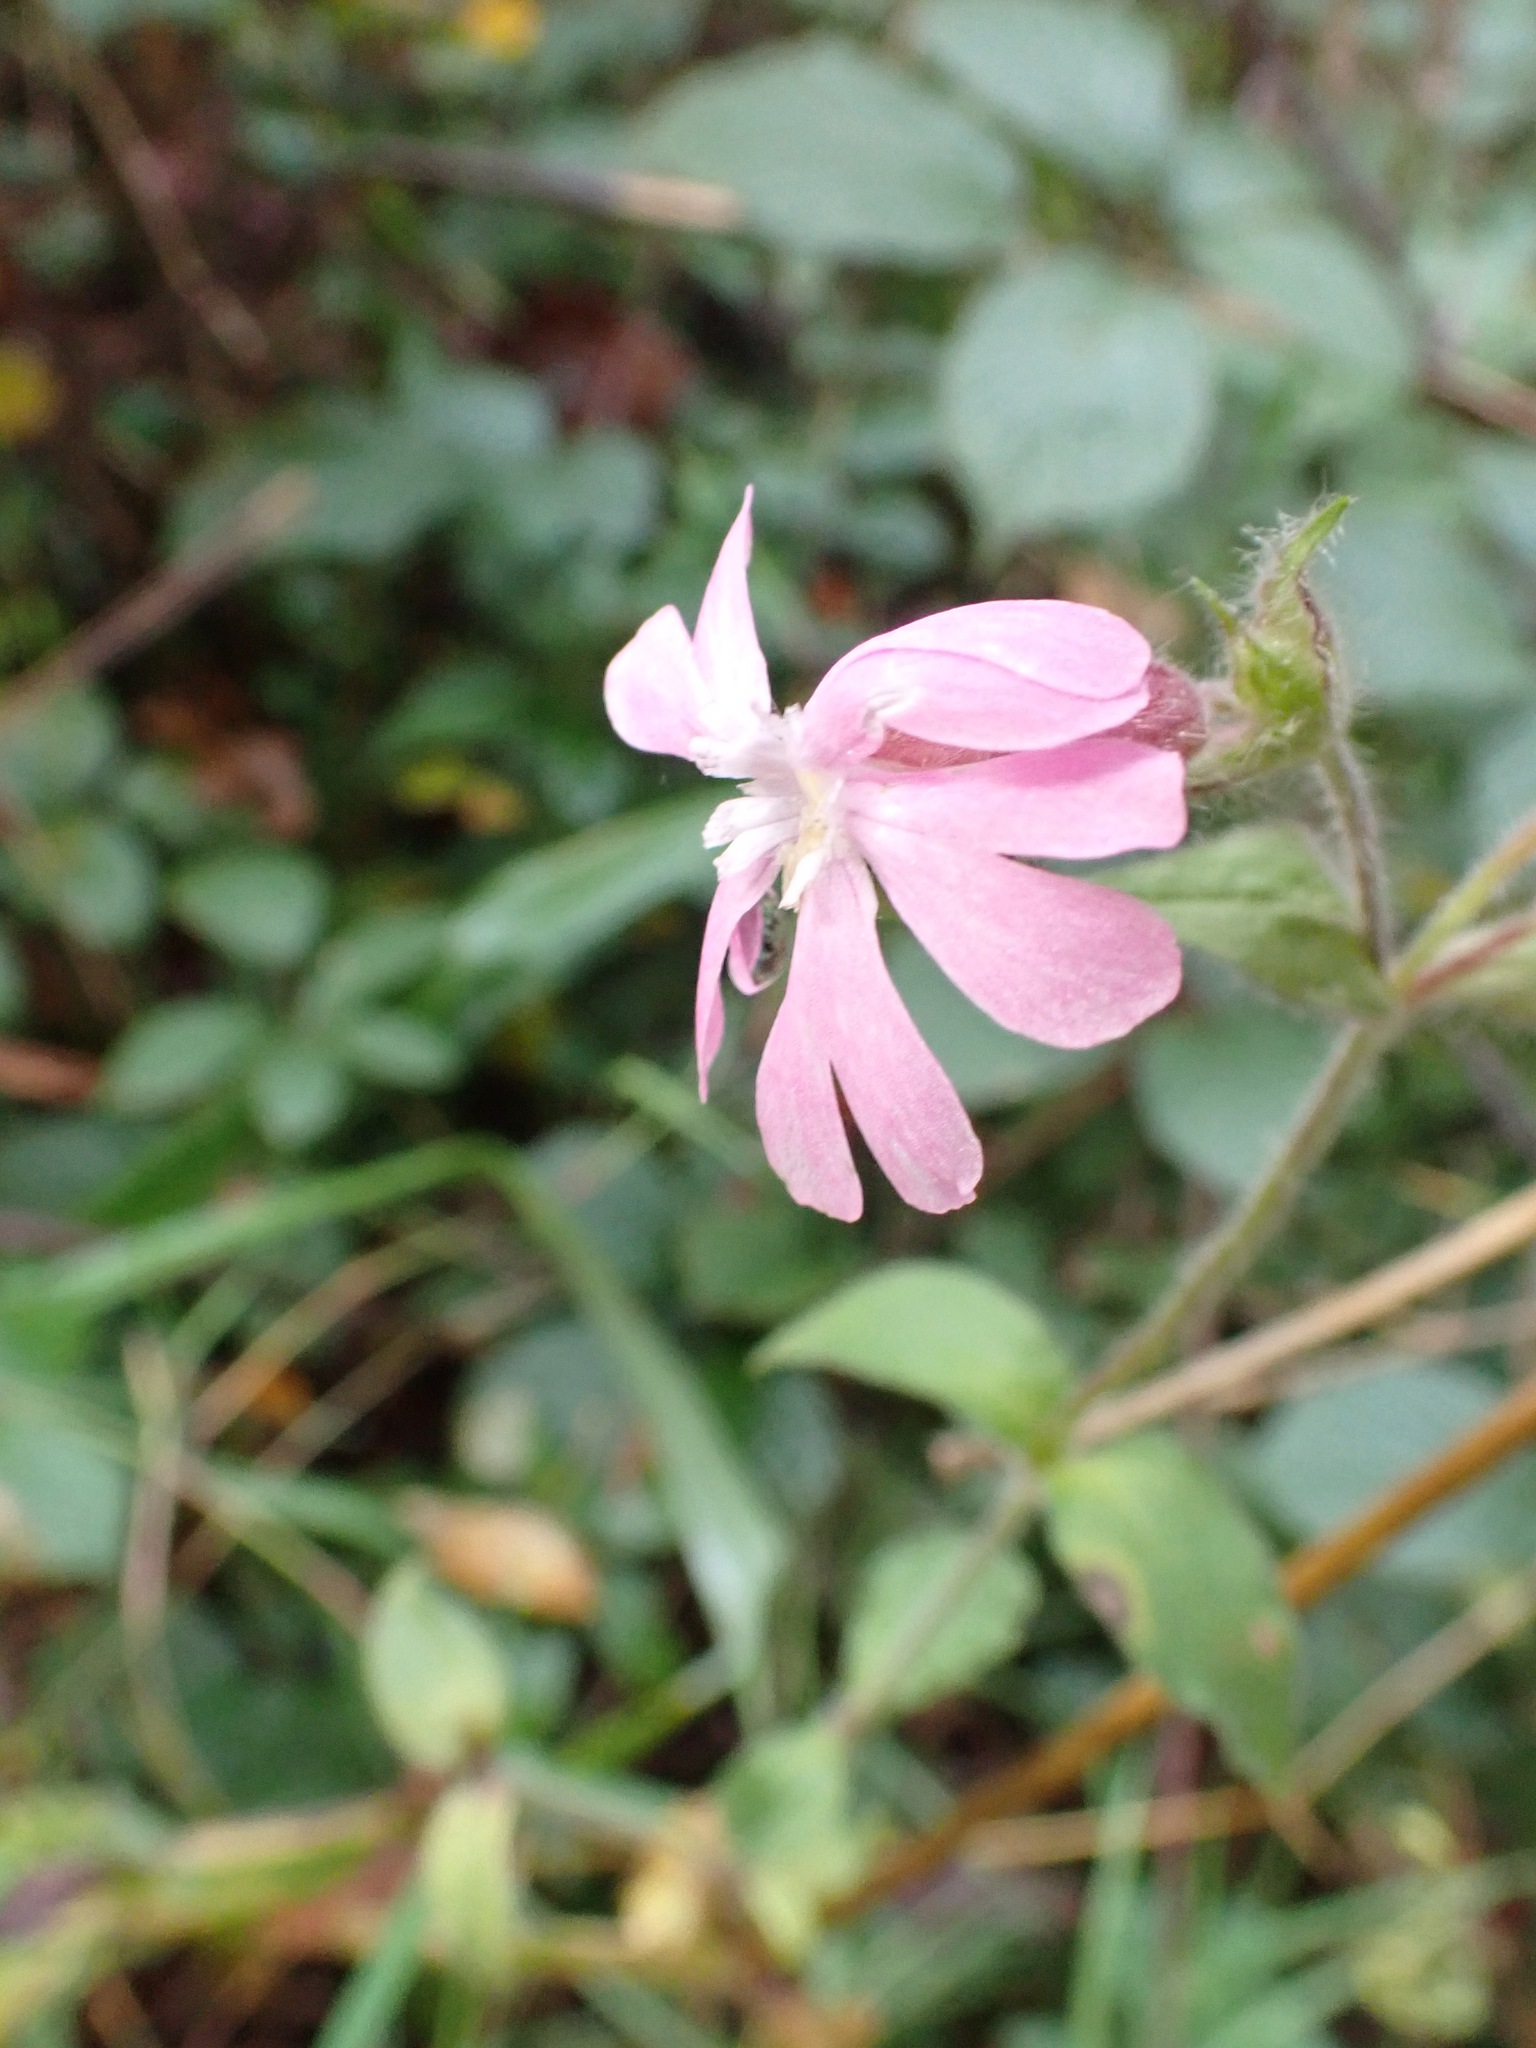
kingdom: Plantae
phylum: Tracheophyta
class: Magnoliopsida
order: Caryophyllales
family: Caryophyllaceae
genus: Silene
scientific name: Silene dioica
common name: Red campion
